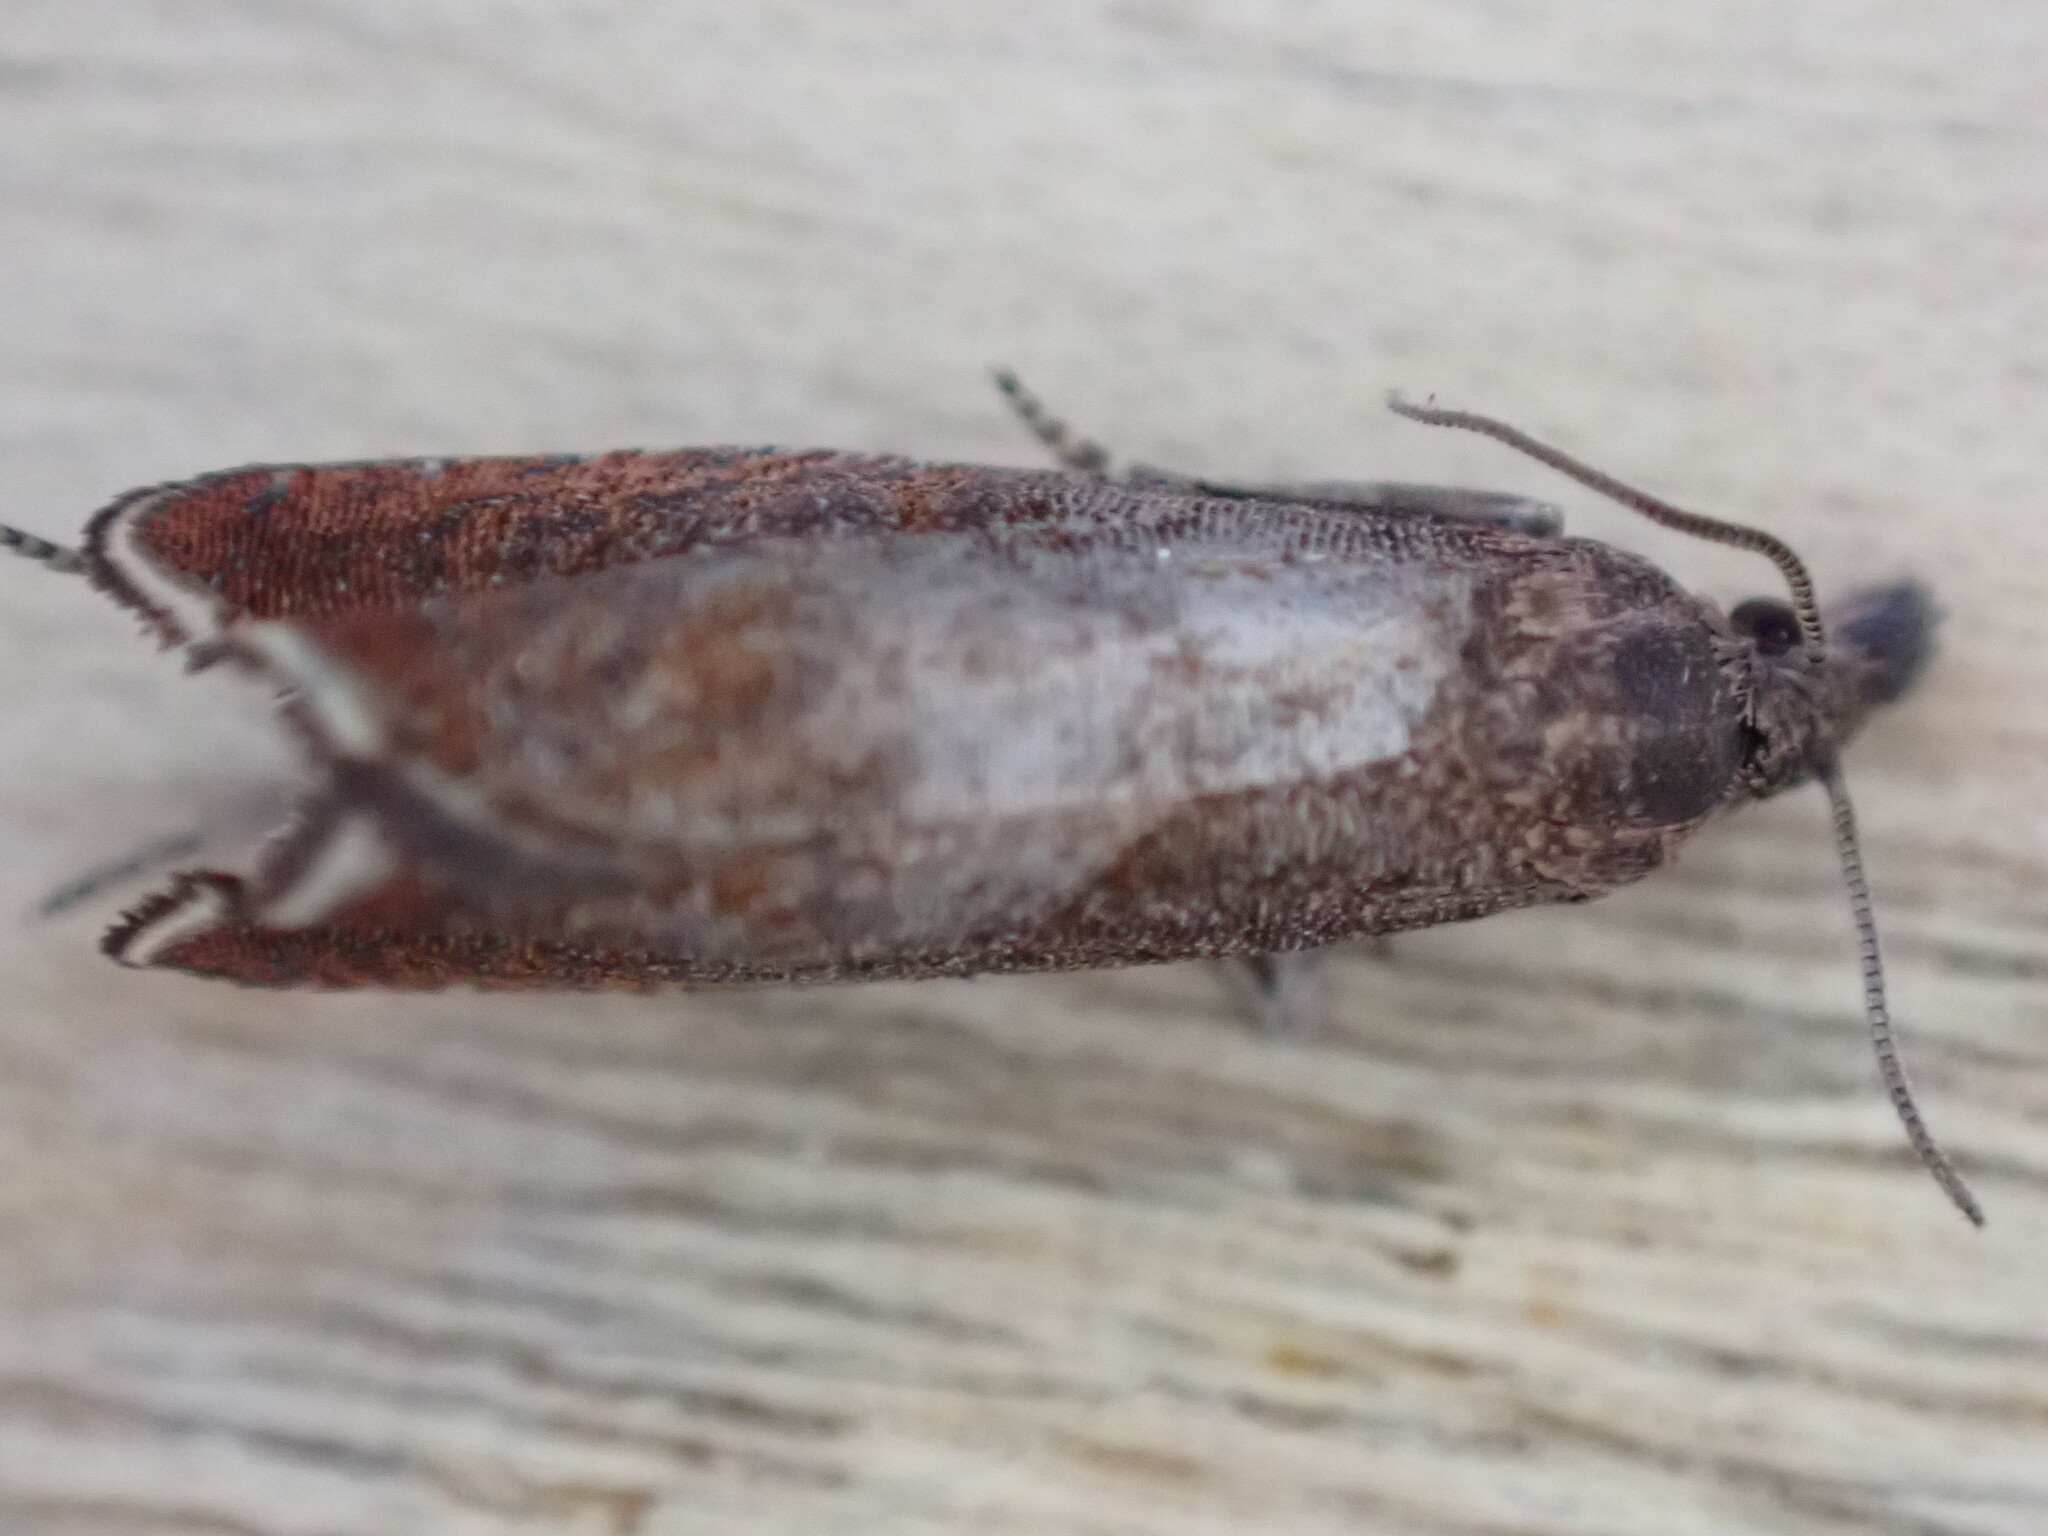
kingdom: Animalia
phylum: Arthropoda
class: Insecta
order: Lepidoptera
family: Tortricidae
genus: Dichrorampha
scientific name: Dichrorampha acuminatana
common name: Sharp-winged drill
